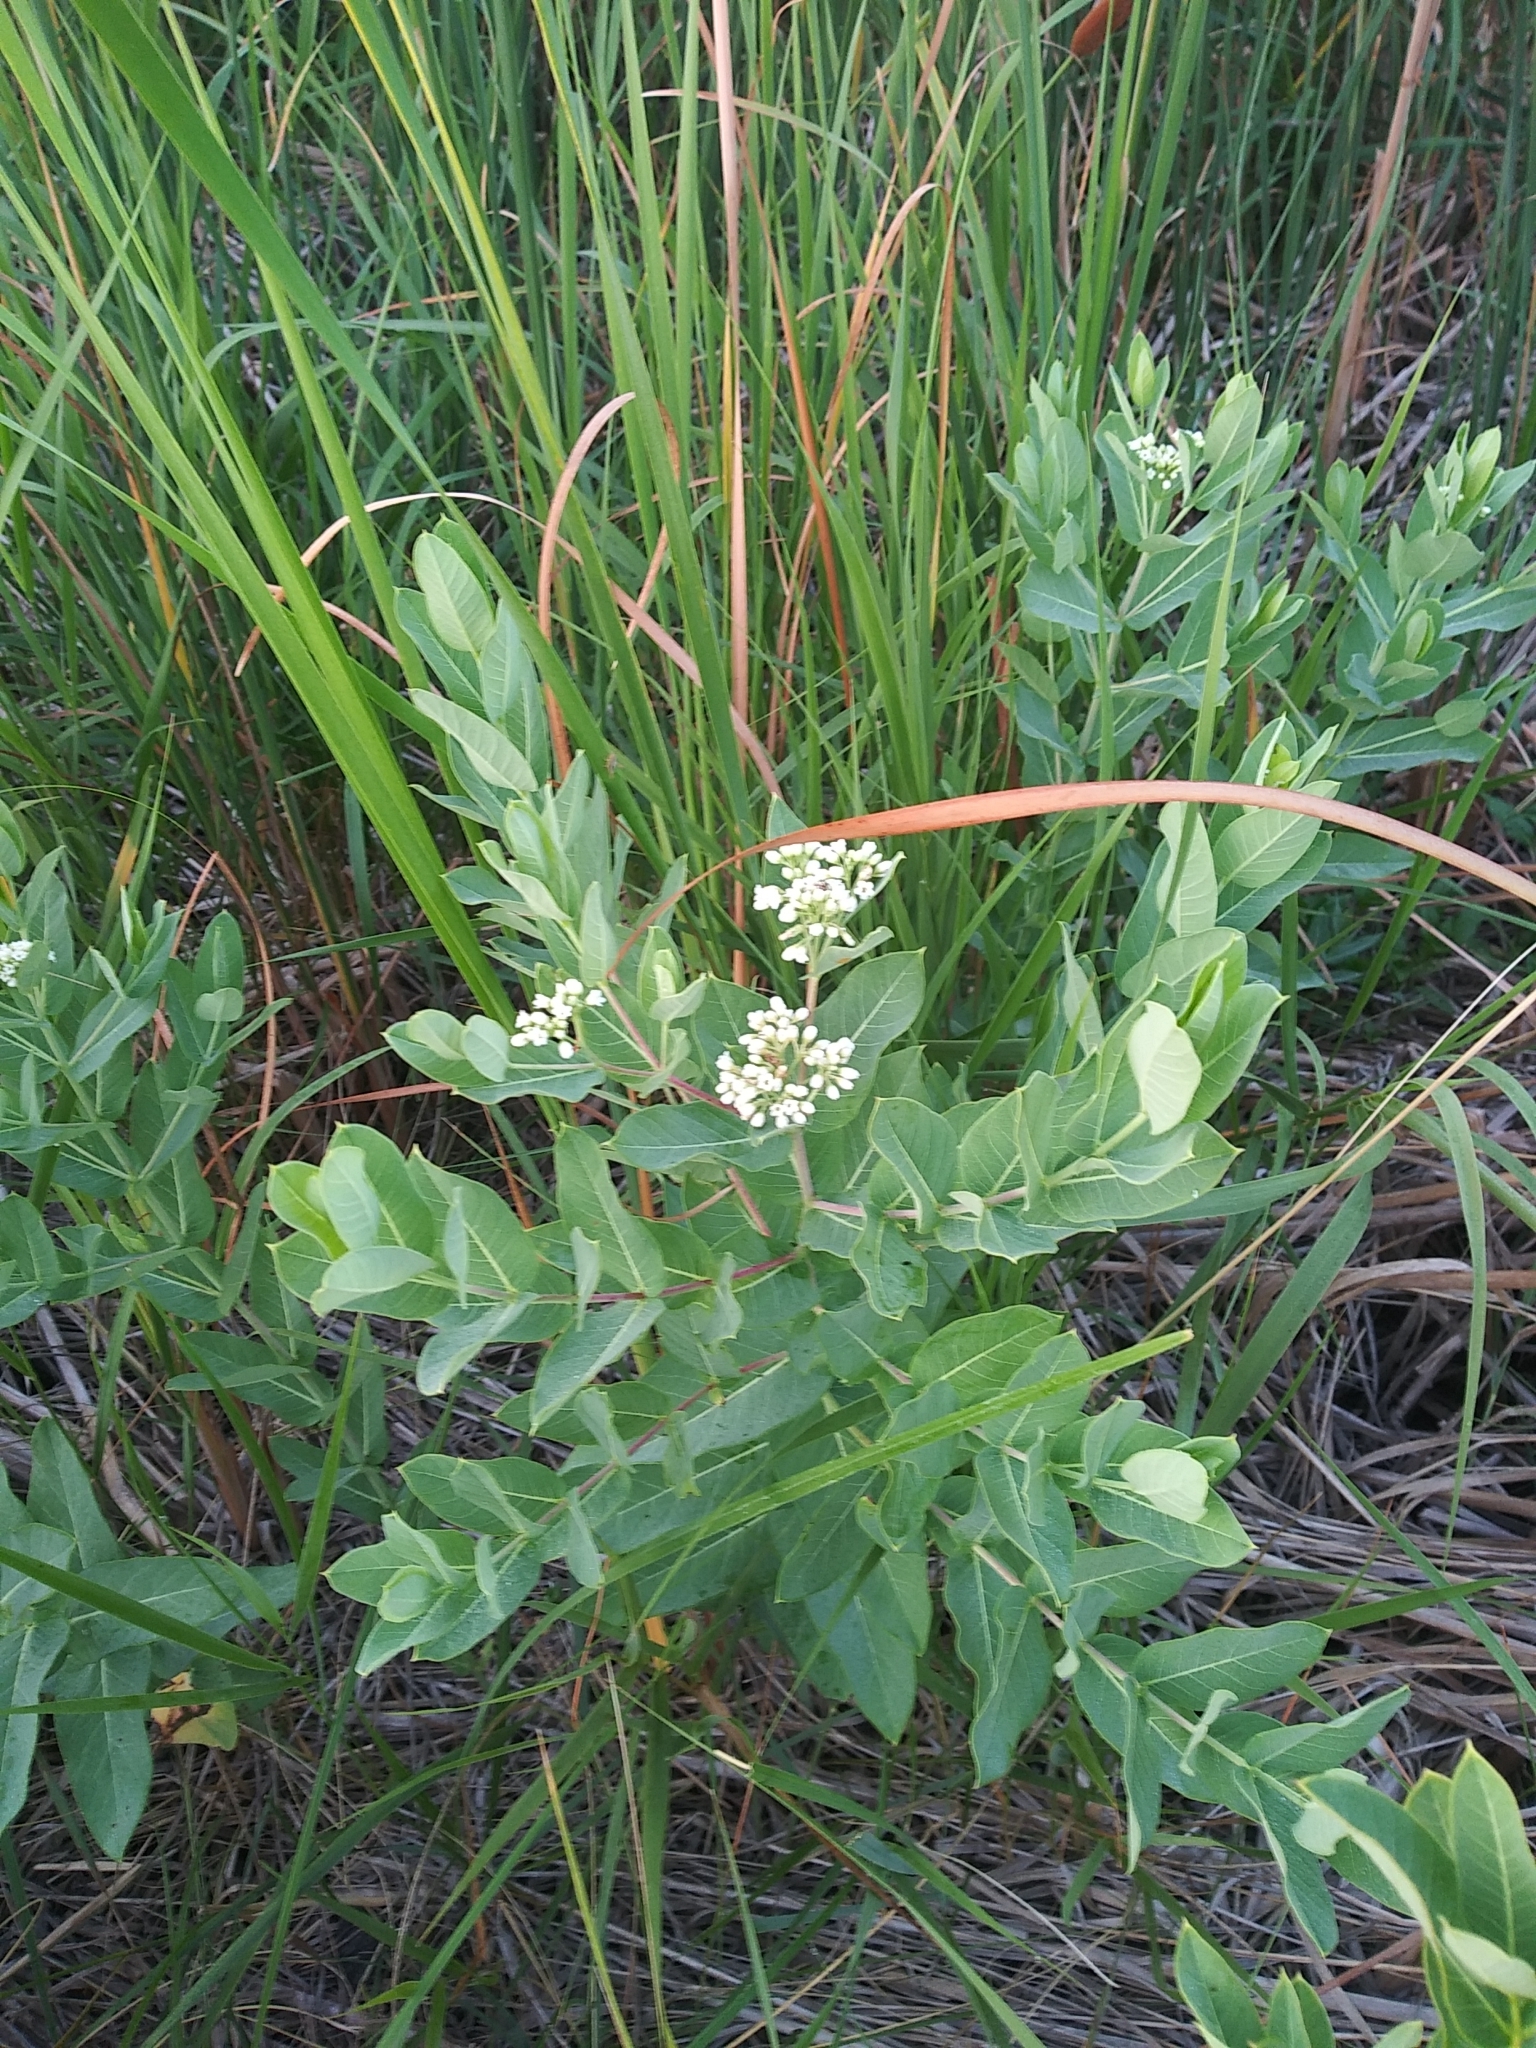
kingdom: Plantae
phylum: Tracheophyta
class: Magnoliopsida
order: Gentianales
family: Apocynaceae
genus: Apocynum
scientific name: Apocynum cannabinum
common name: Hemp dogbane
